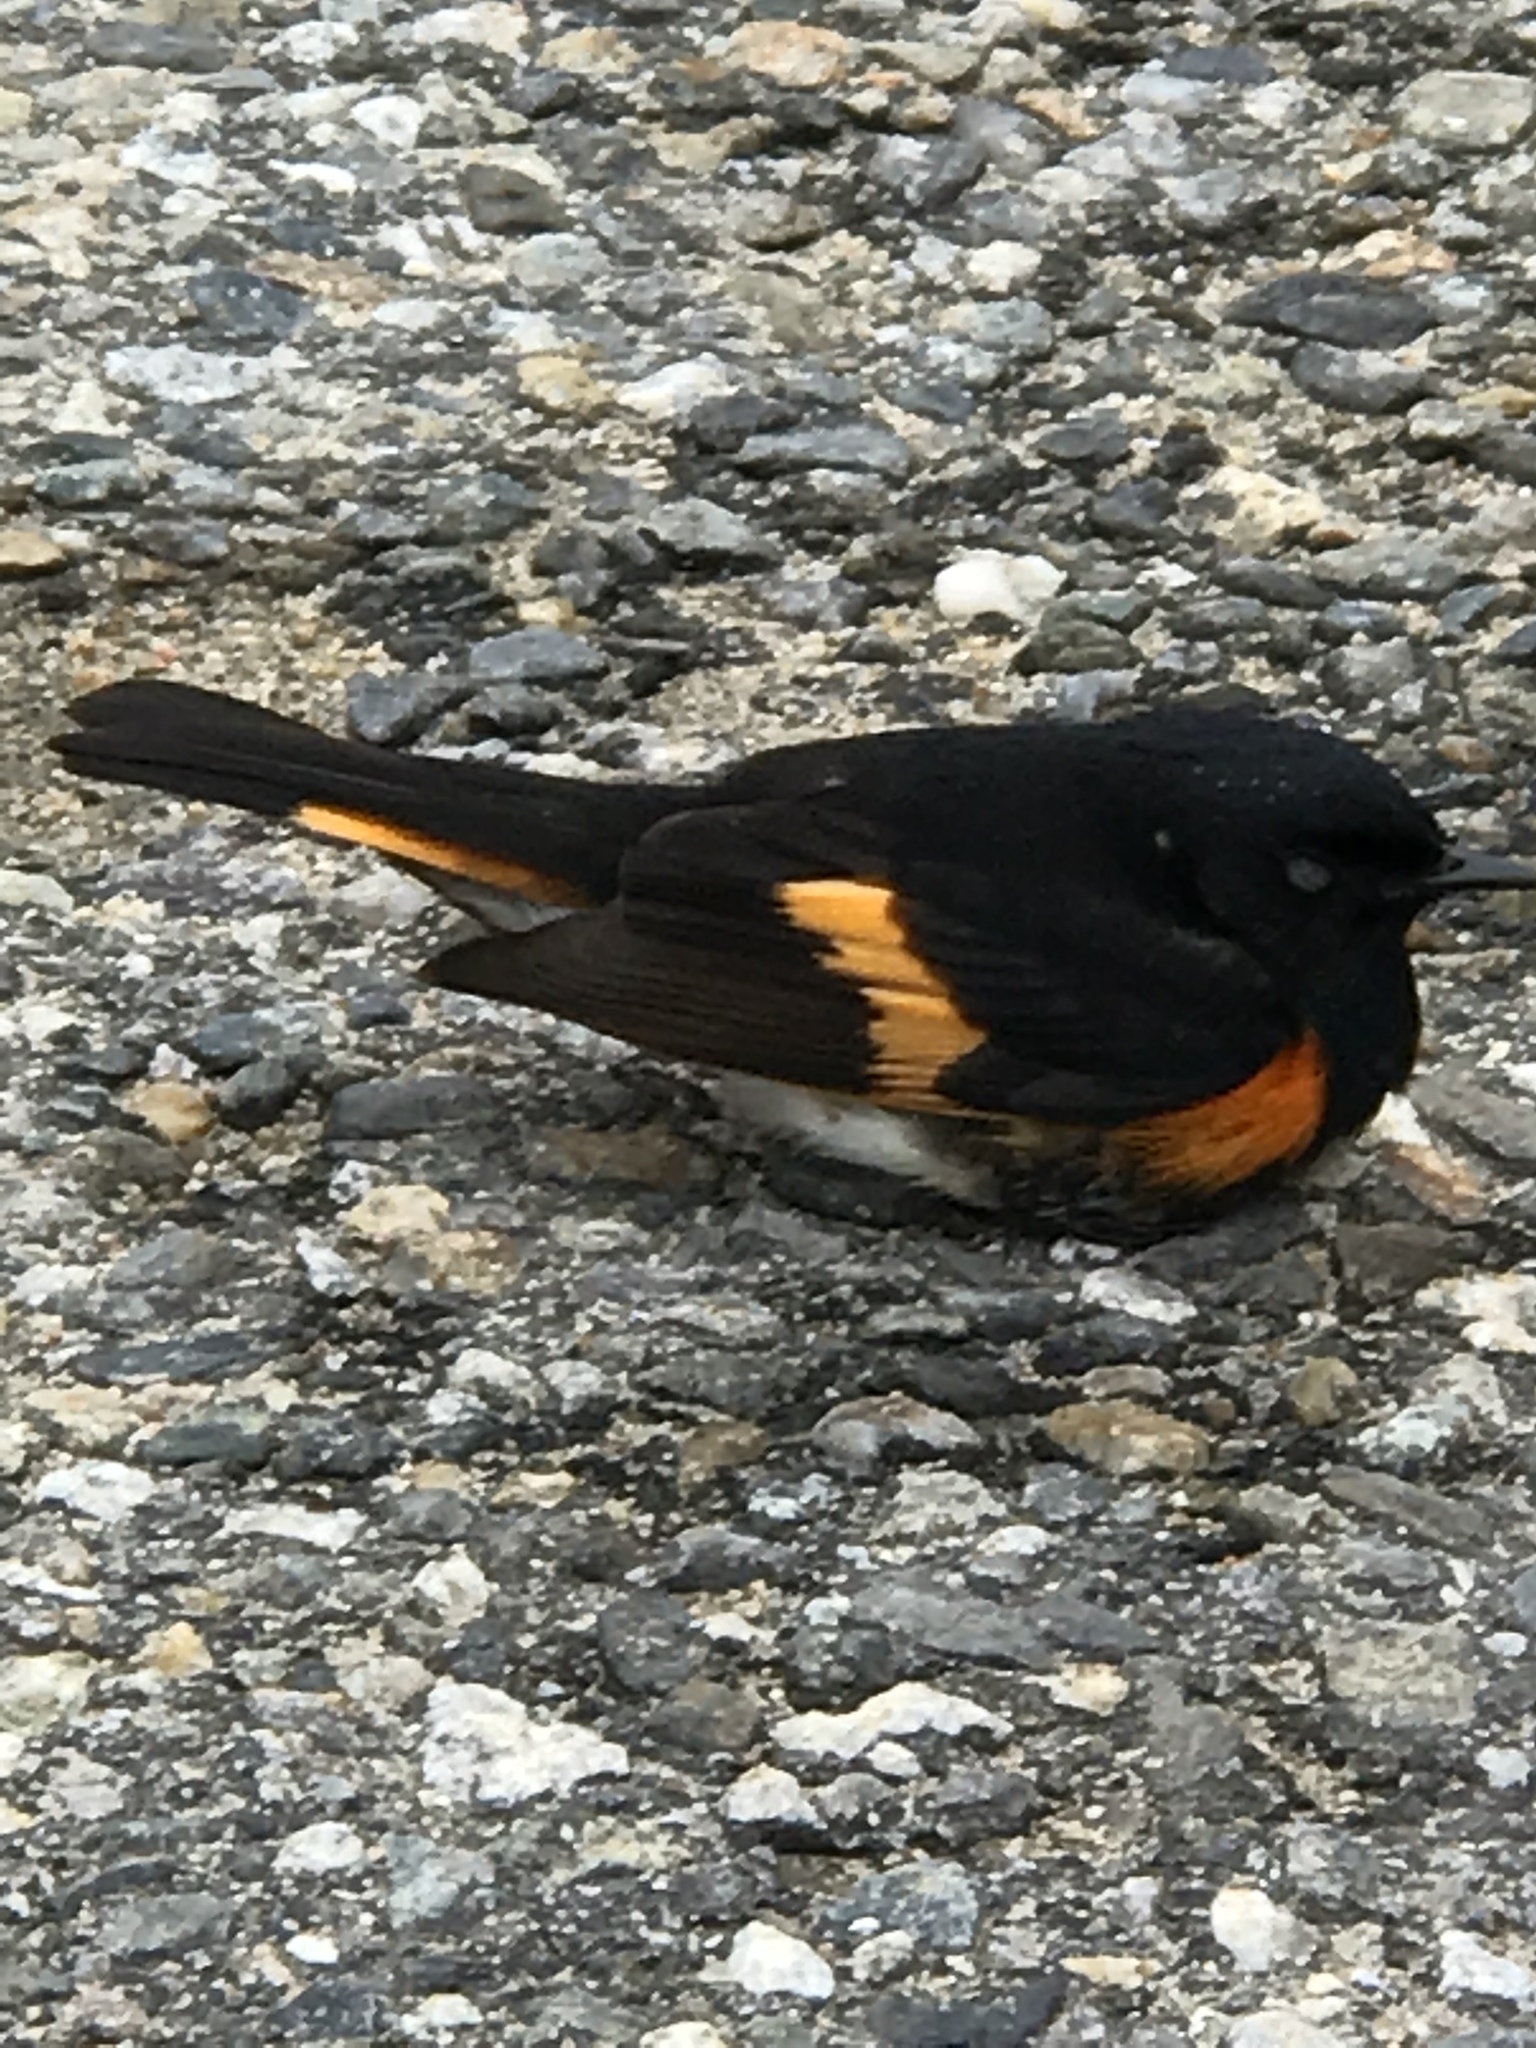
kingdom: Animalia
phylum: Chordata
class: Aves
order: Passeriformes
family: Parulidae
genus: Setophaga
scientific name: Setophaga ruticilla
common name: American redstart
